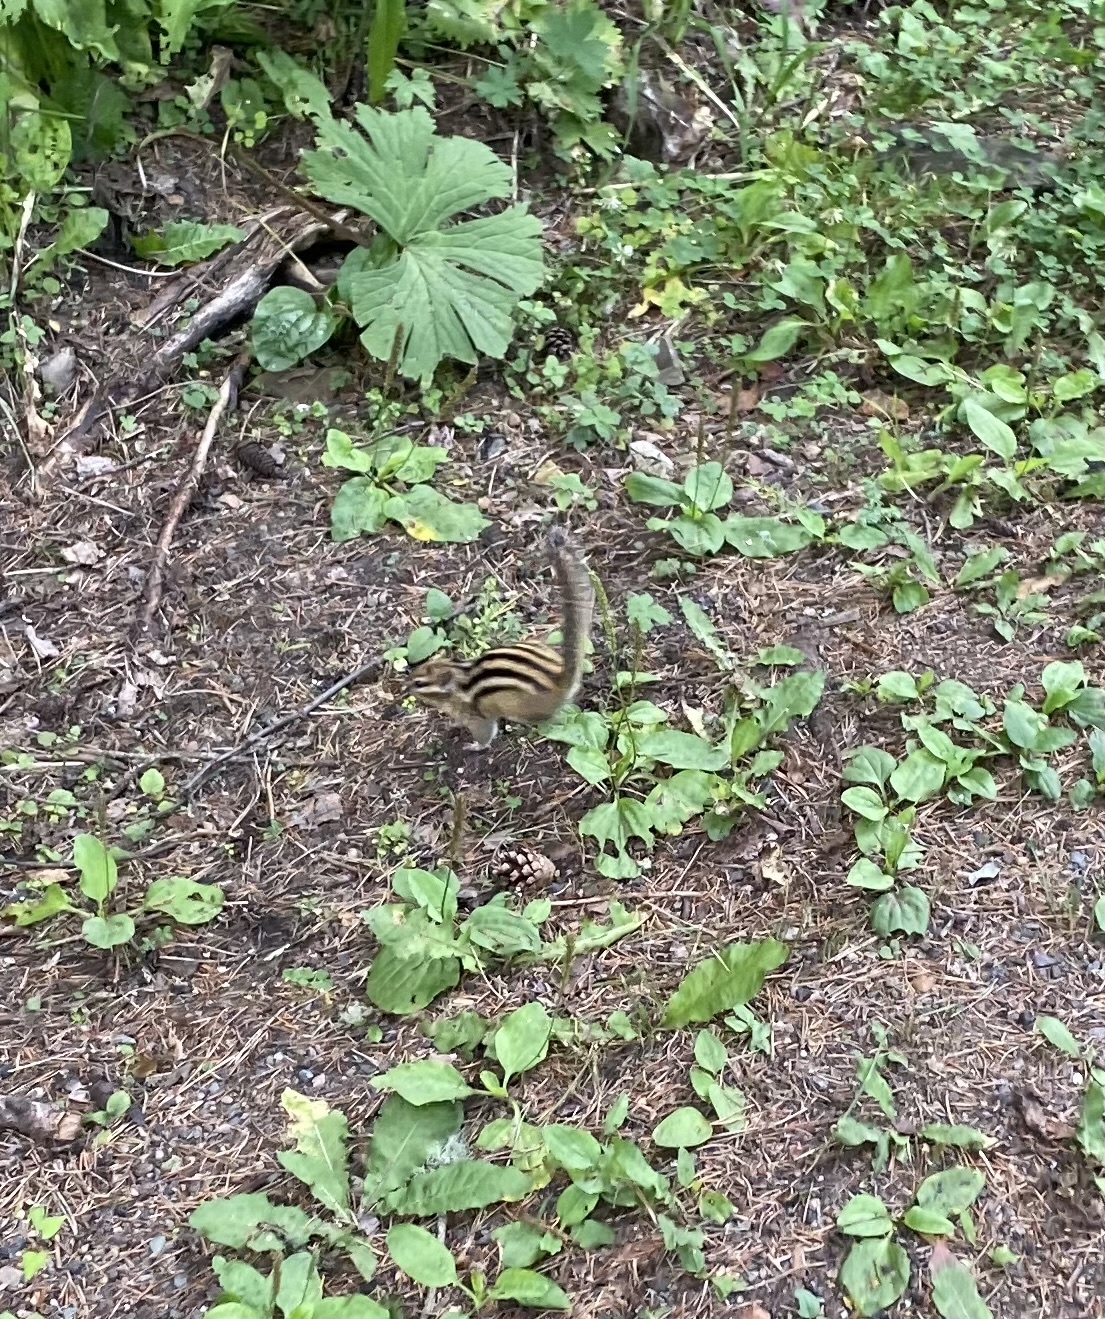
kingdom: Animalia
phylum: Chordata
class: Mammalia
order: Rodentia
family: Sciuridae
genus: Tamias
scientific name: Tamias sibiricus
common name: Siberian chipmunk
